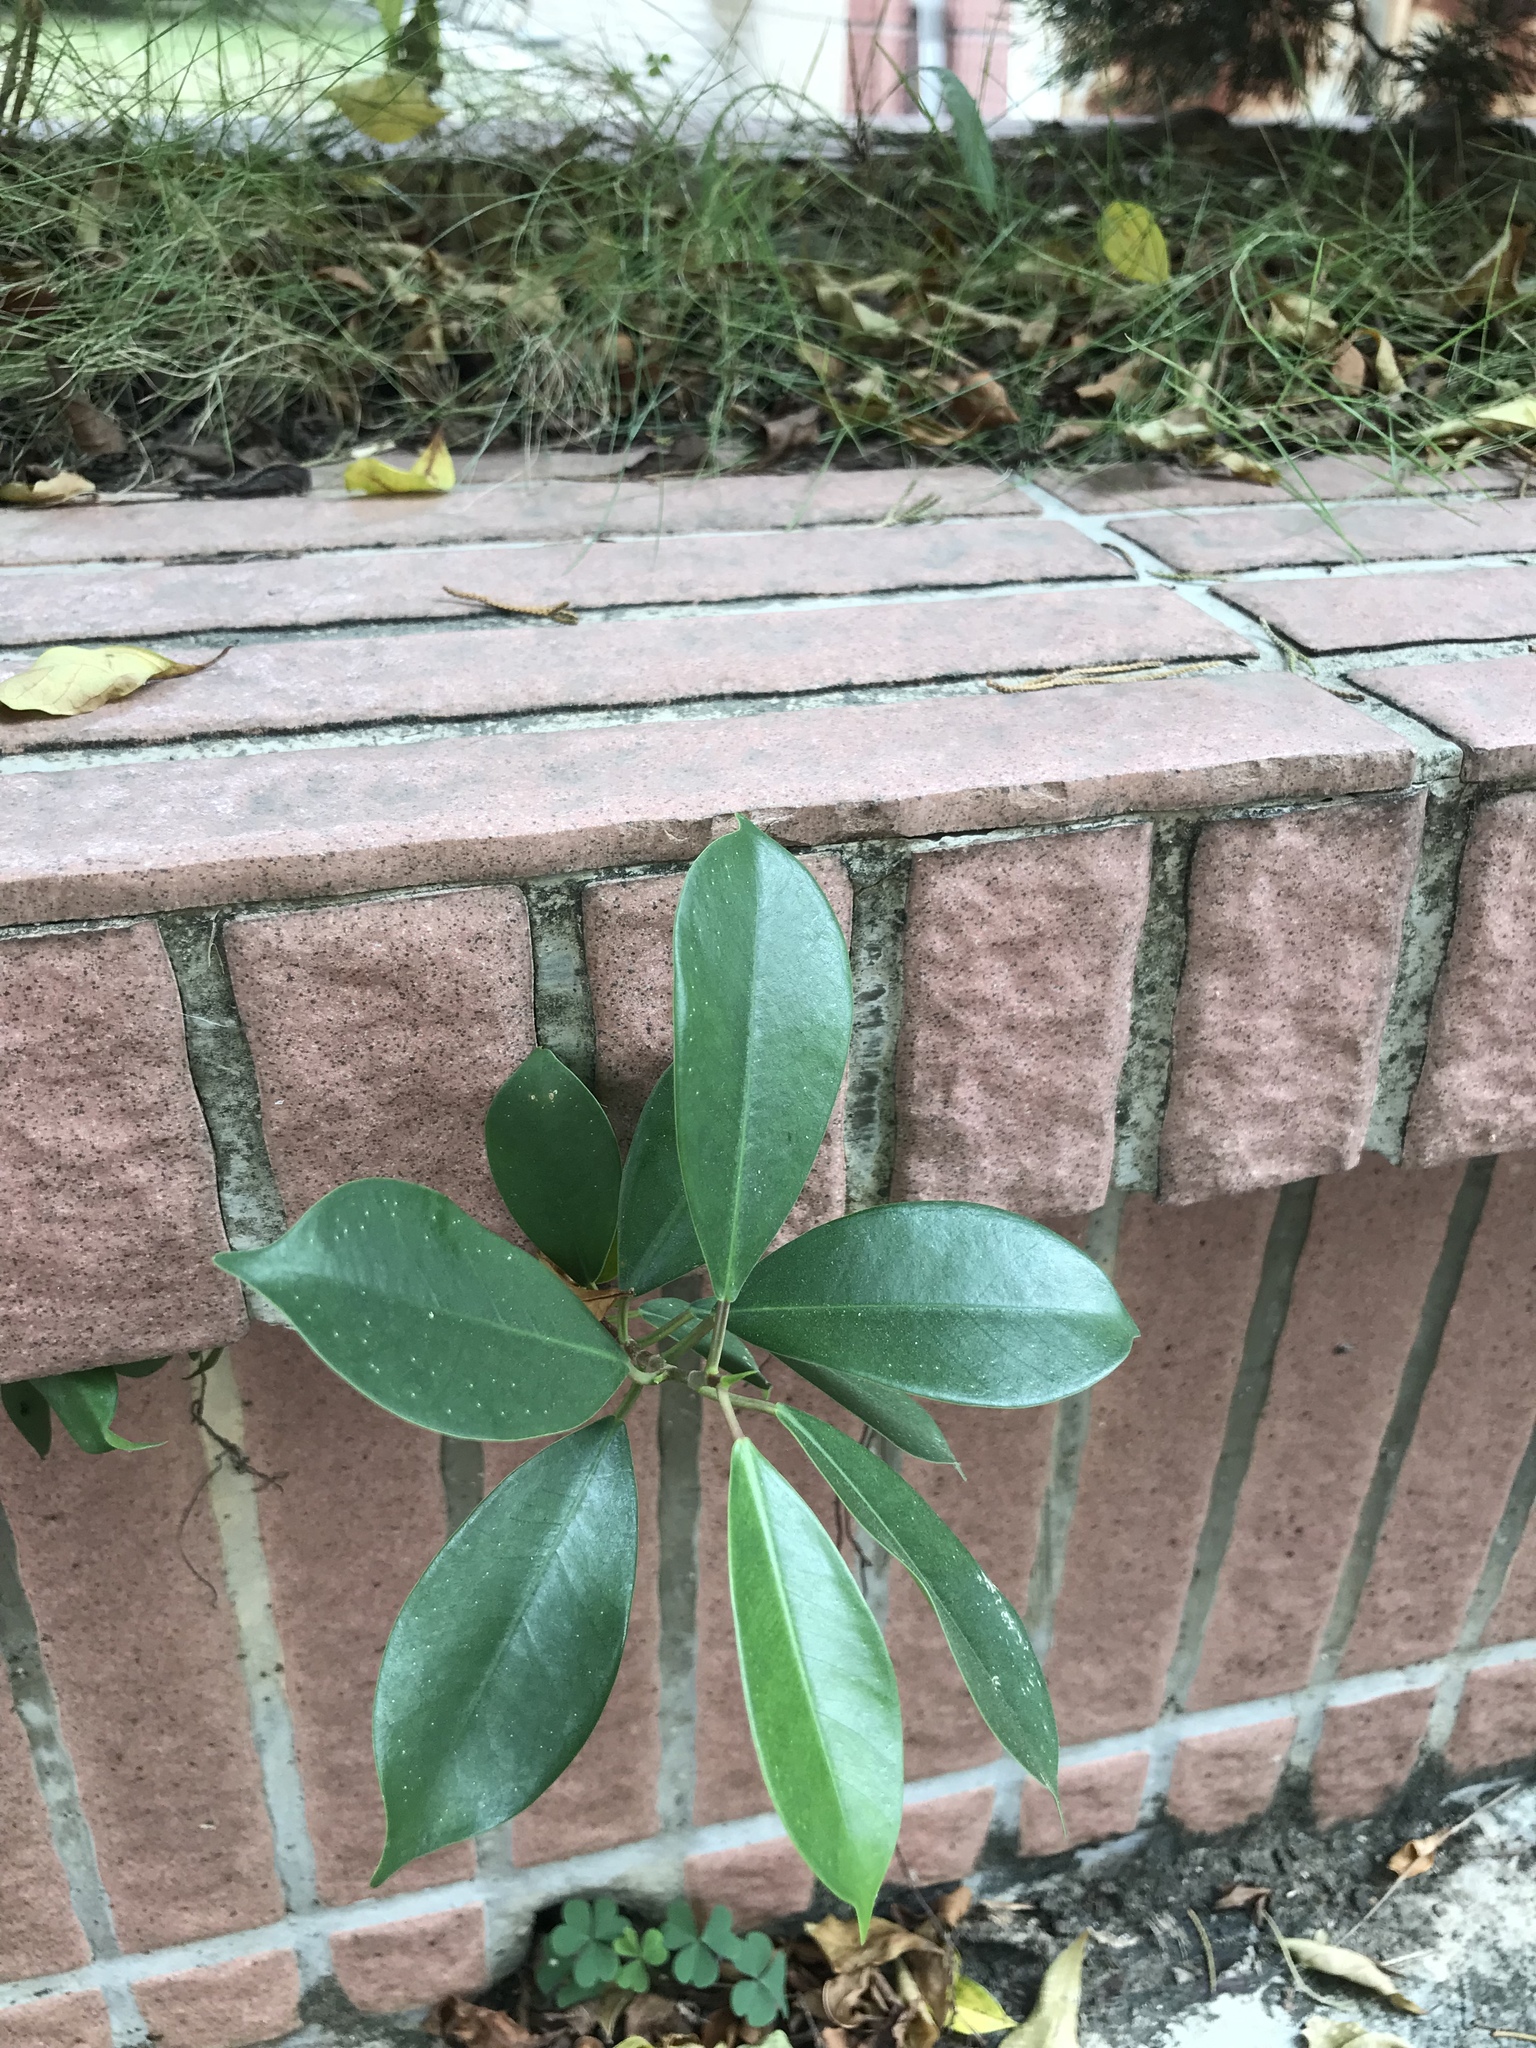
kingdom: Plantae
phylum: Tracheophyta
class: Magnoliopsida
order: Rosales
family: Moraceae
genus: Ficus
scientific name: Ficus microcarpa
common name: Chinese banyan
